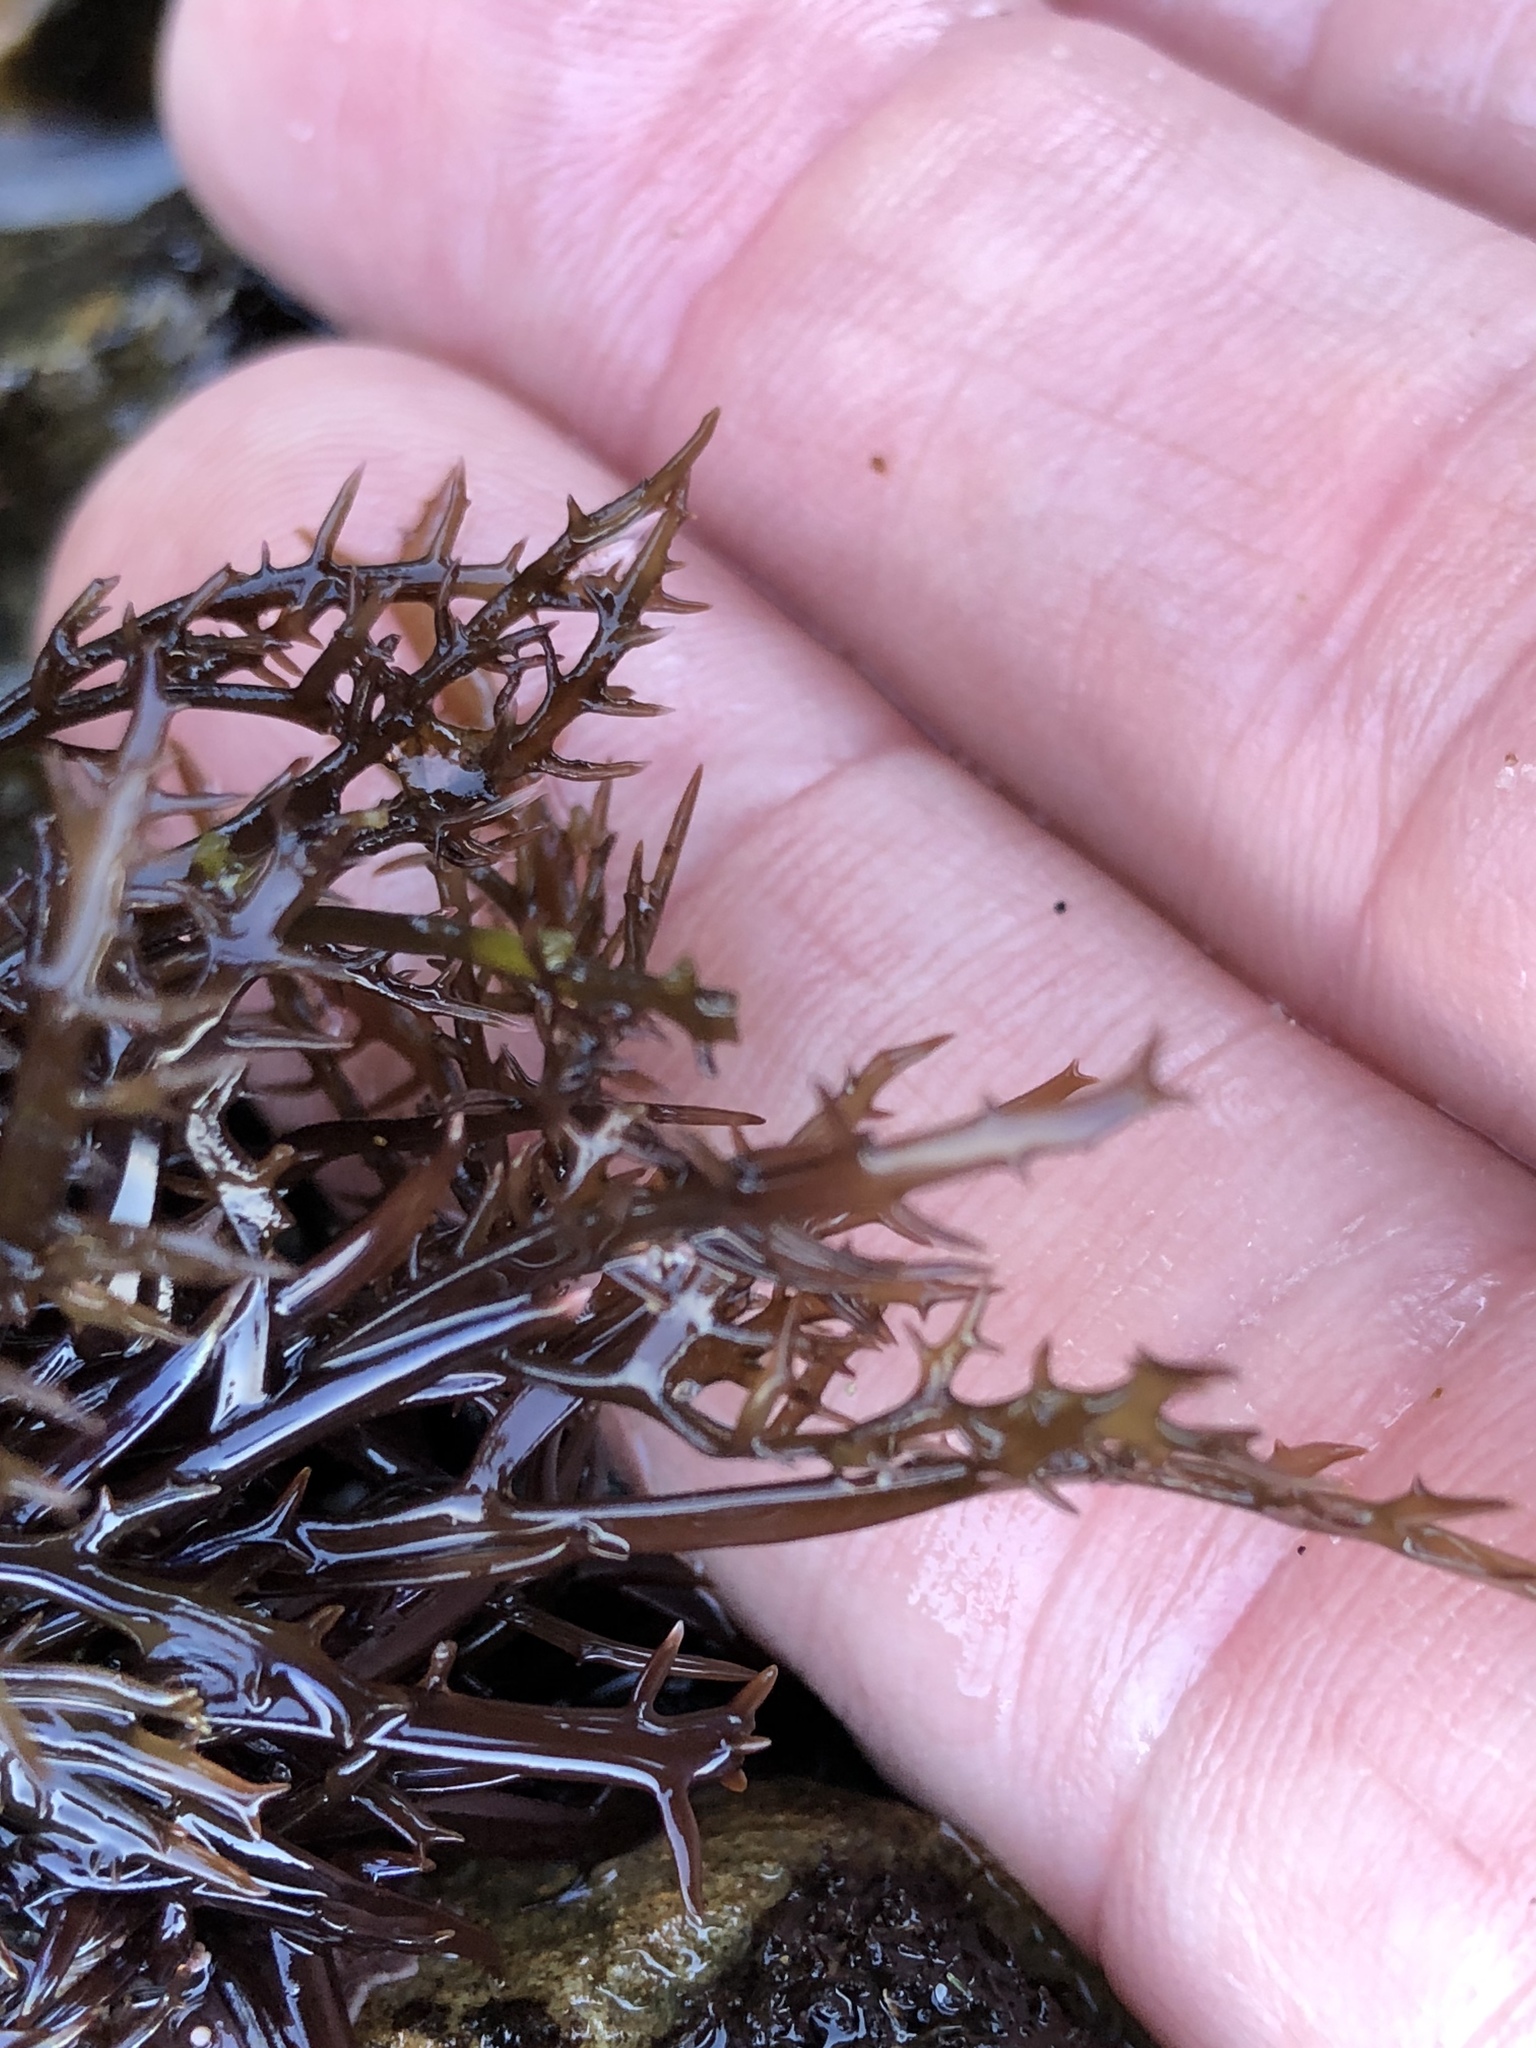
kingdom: Plantae
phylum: Rhodophyta
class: Florideophyceae
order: Gigartinales
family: Gigartinaceae
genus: Chondracanthus
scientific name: Chondracanthus canaliculatus
